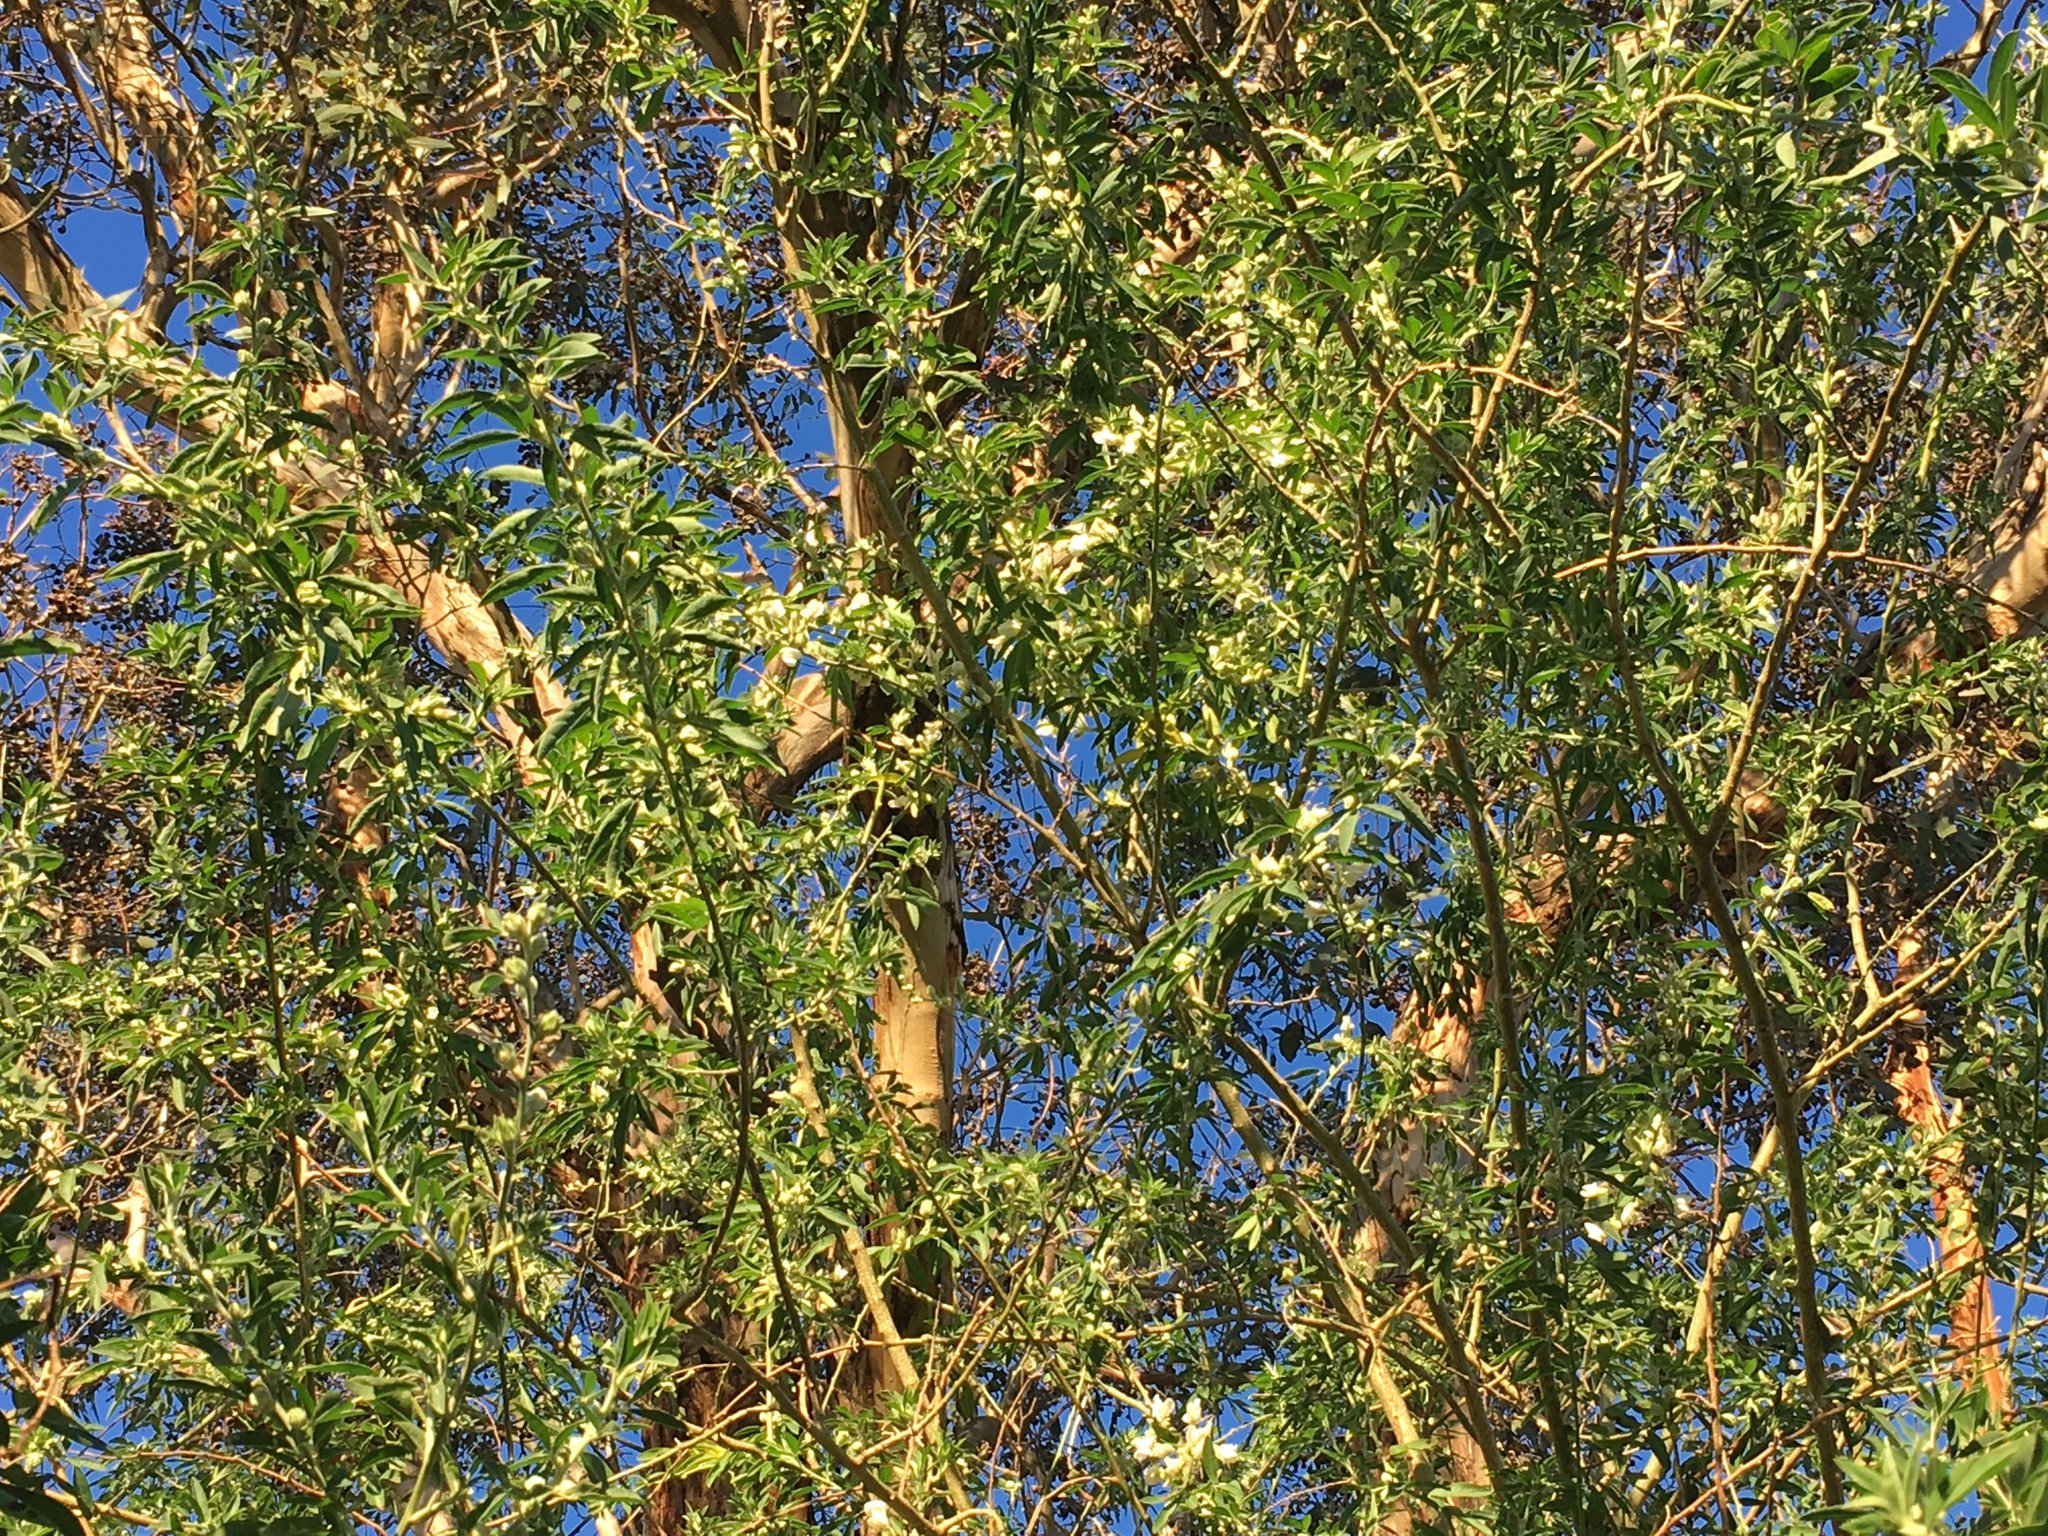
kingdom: Plantae
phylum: Tracheophyta
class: Magnoliopsida
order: Fabales
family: Fabaceae
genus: Chamaecytisus
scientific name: Chamaecytisus prolifer
